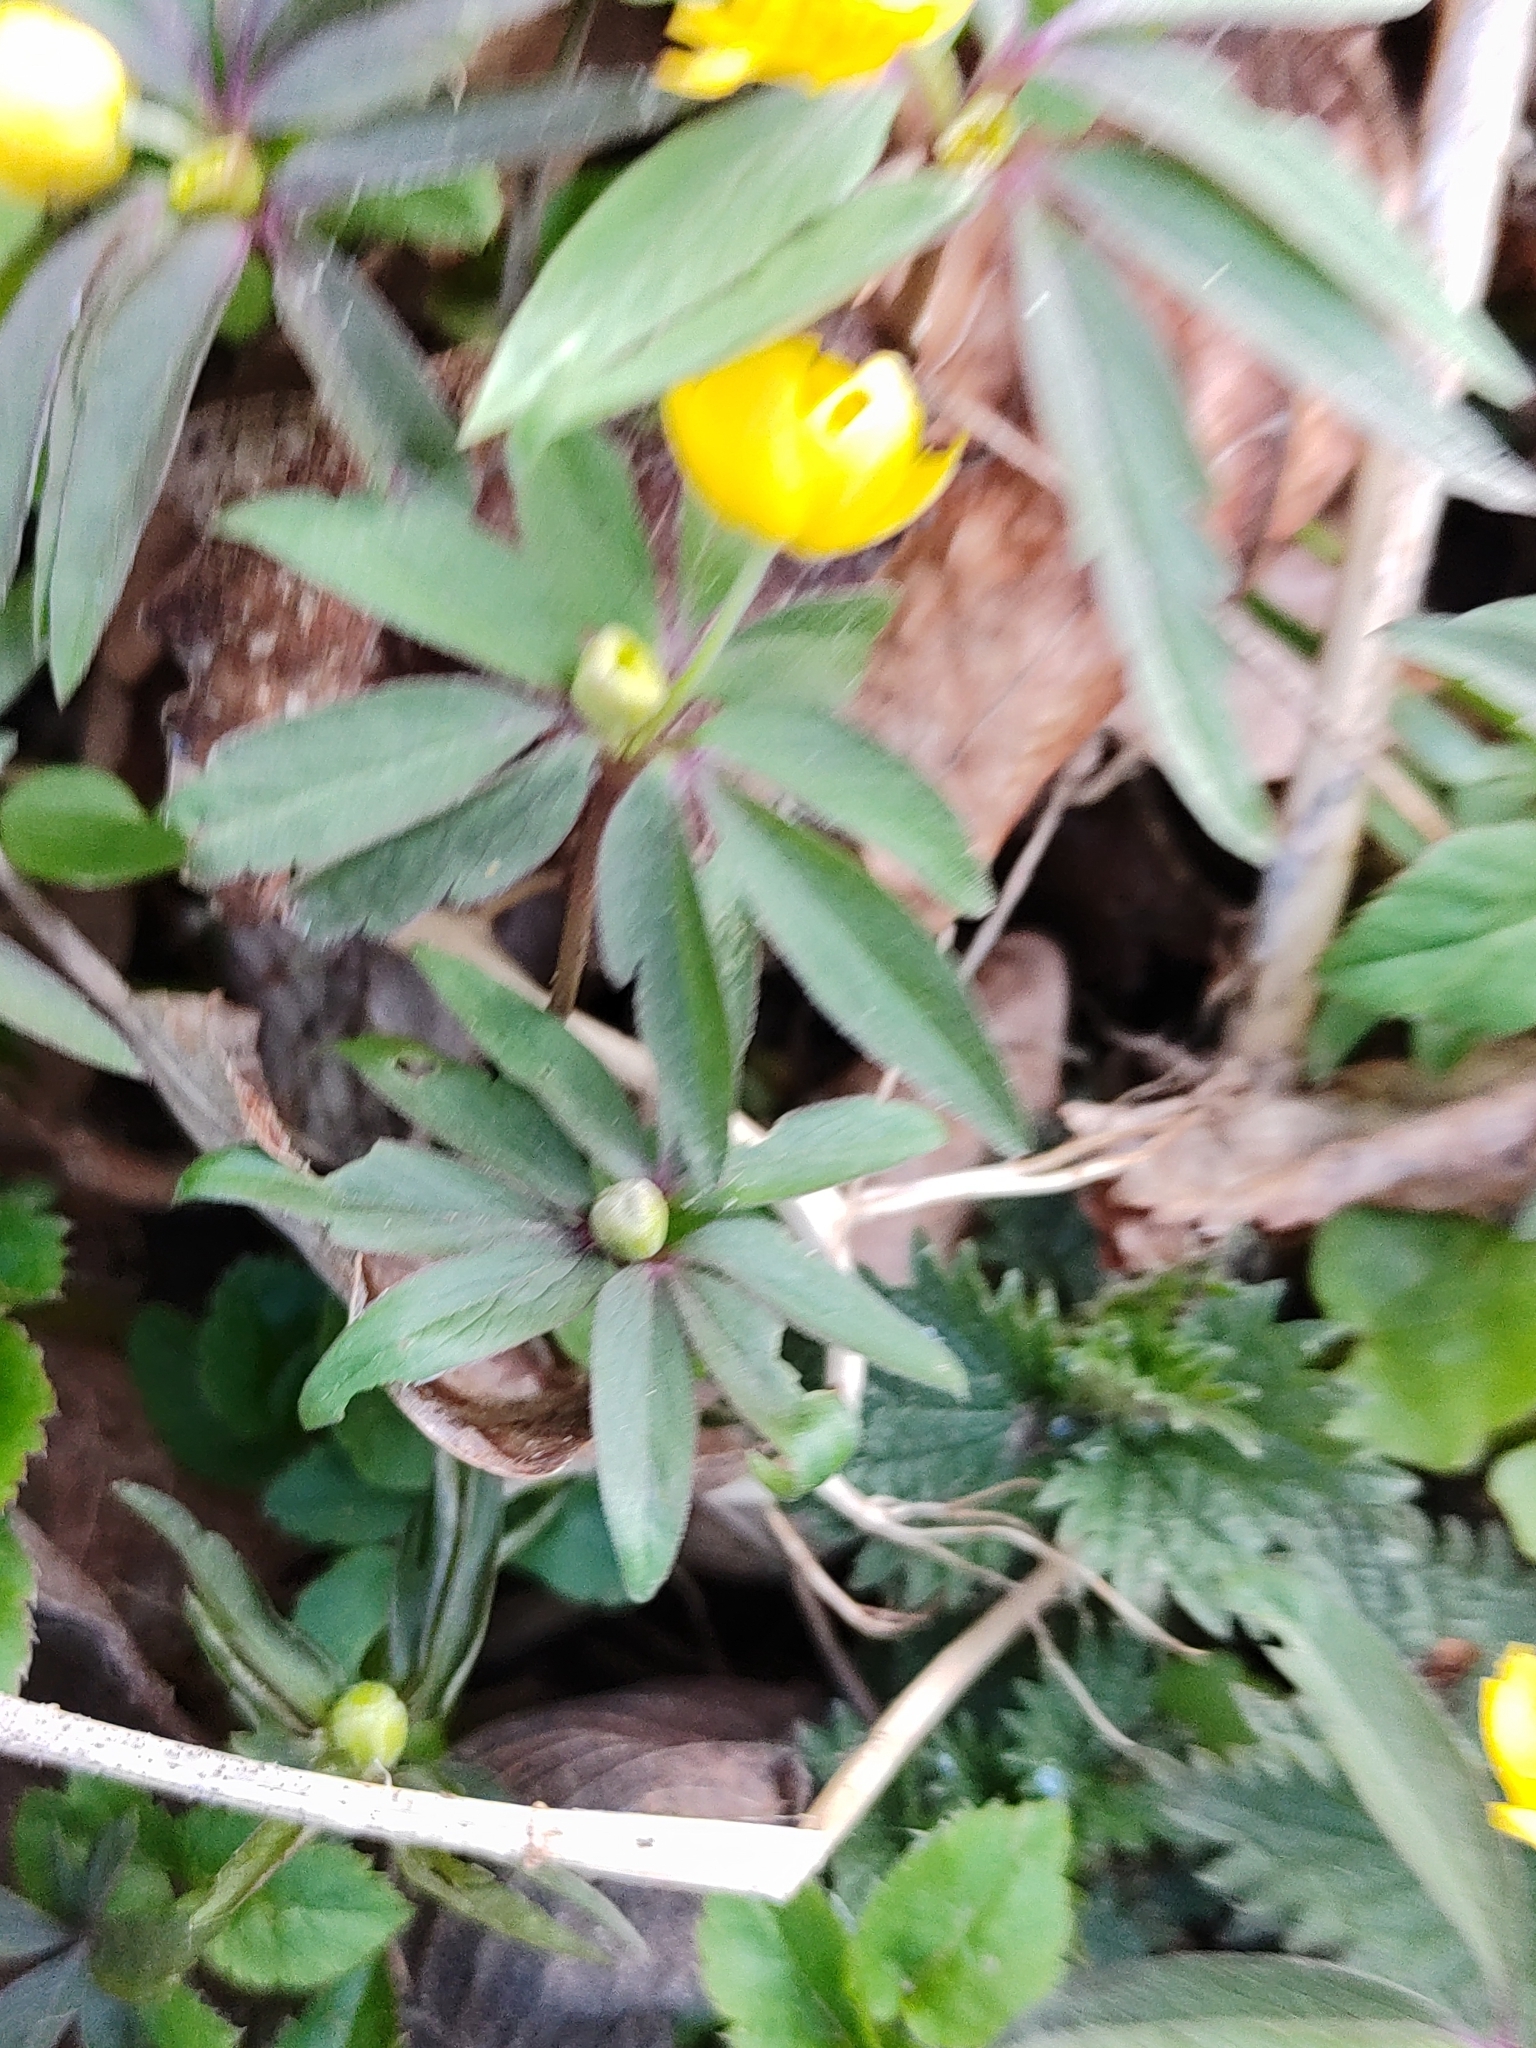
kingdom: Plantae
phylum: Tracheophyta
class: Magnoliopsida
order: Ranunculales
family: Ranunculaceae
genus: Anemone
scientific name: Anemone ranunculoides
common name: Yellow anemone
